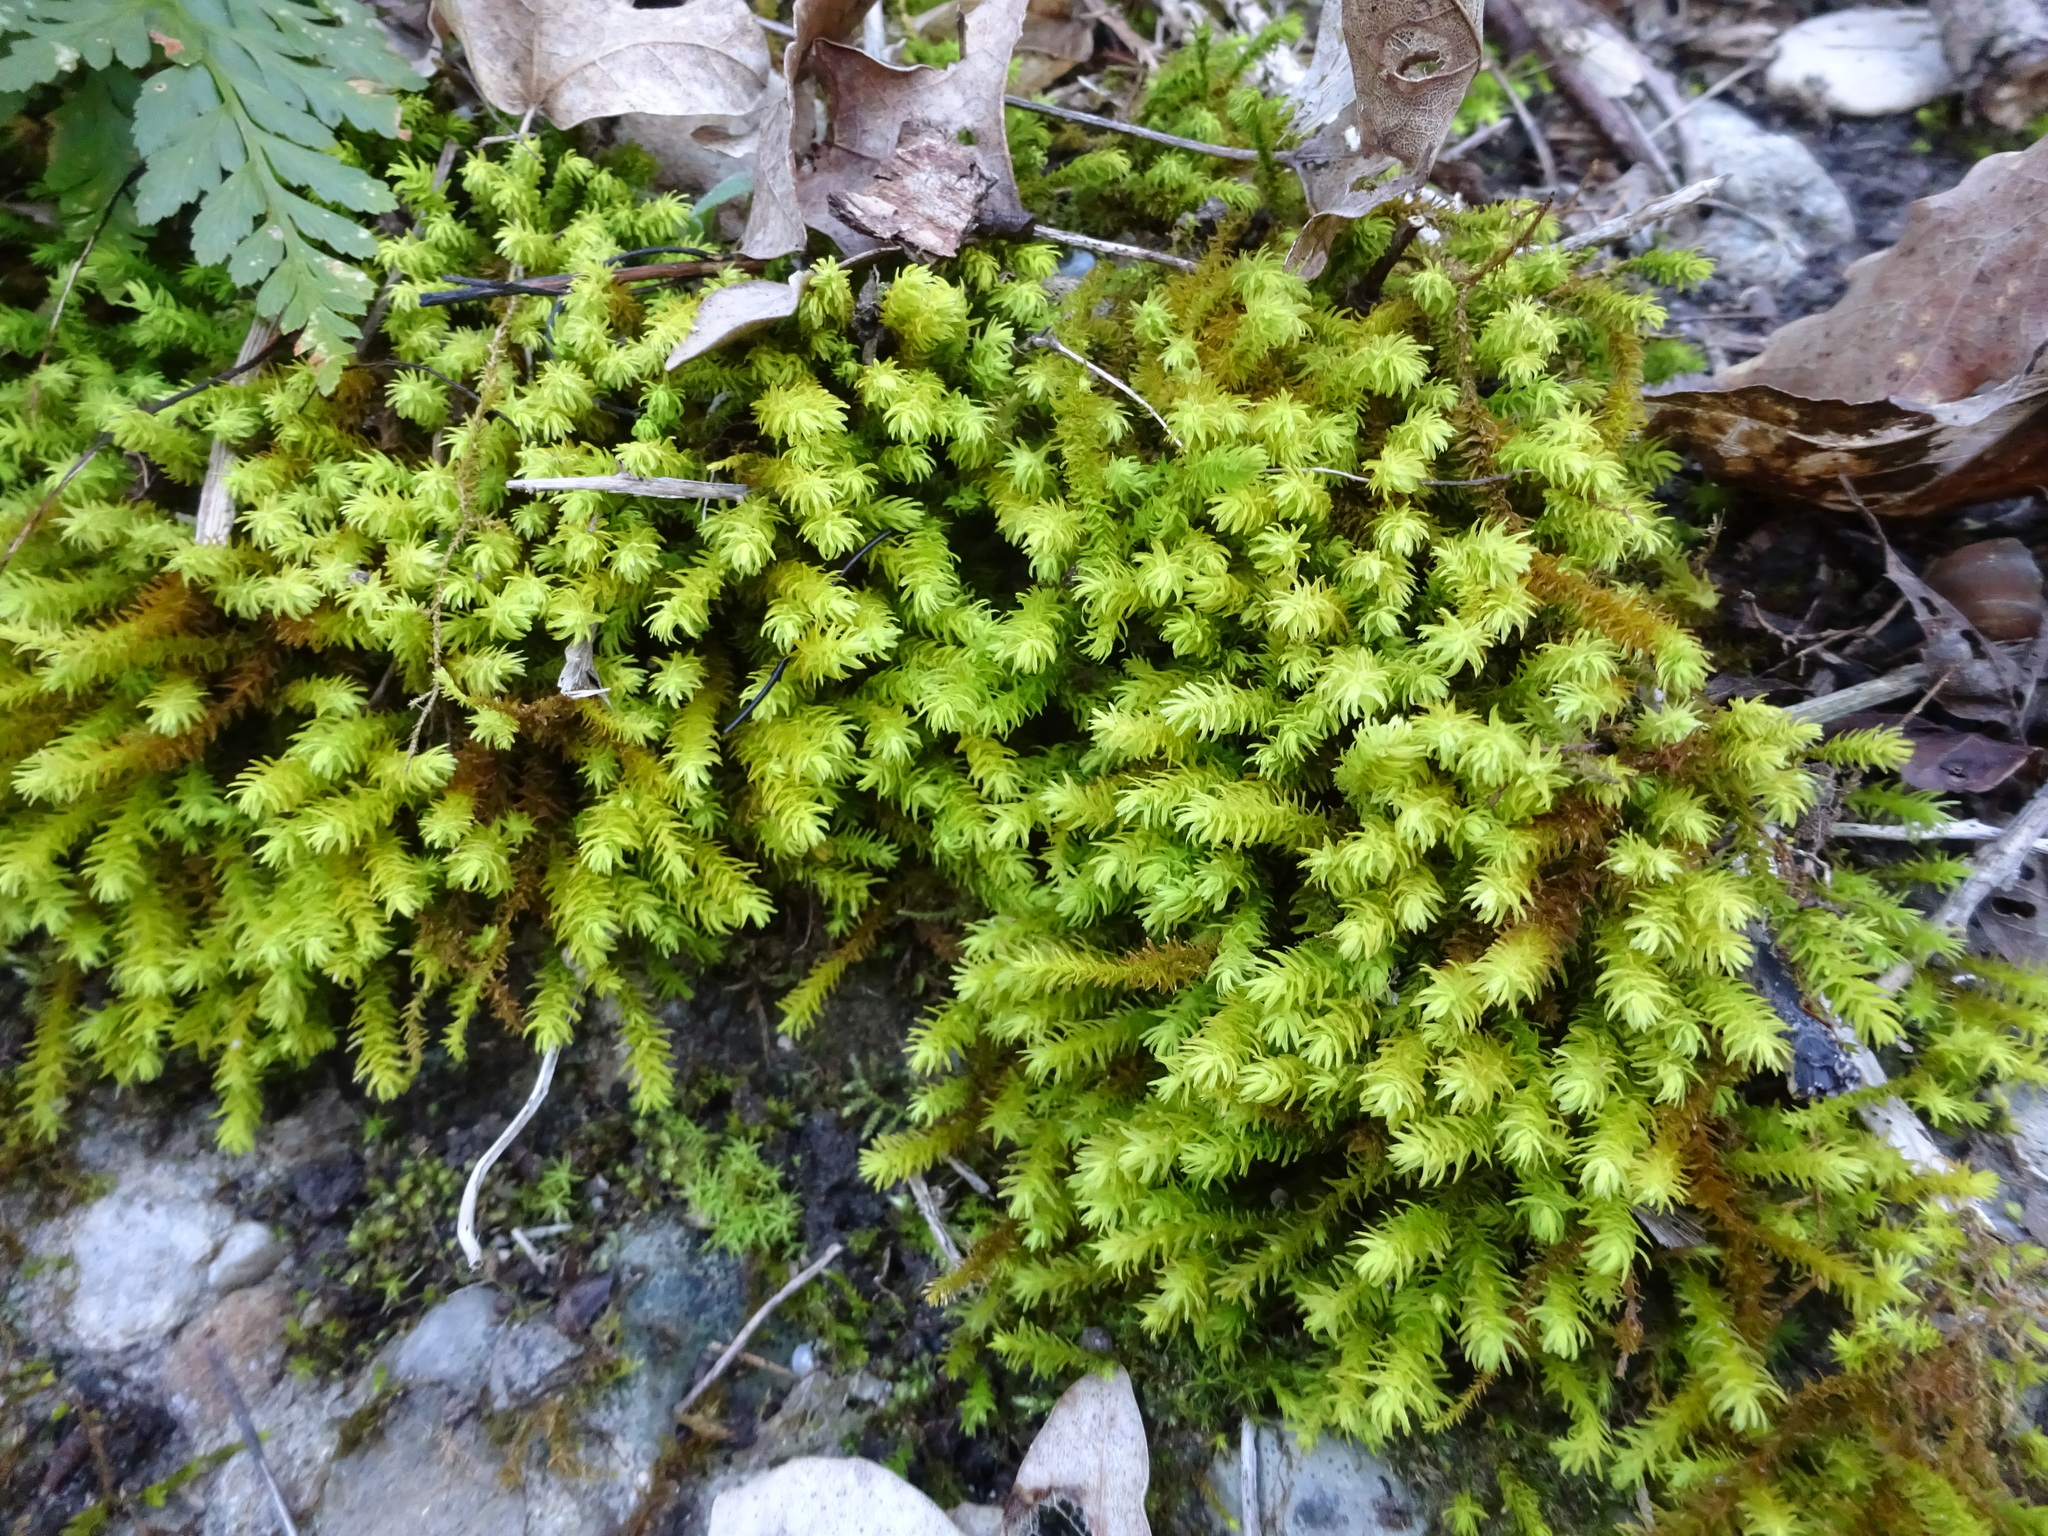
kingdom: Plantae
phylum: Bryophyta
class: Bryopsida
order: Hypnales
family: Anomodontaceae
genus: Anomodon
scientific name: Anomodon viticulosus
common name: Tall anomodon
